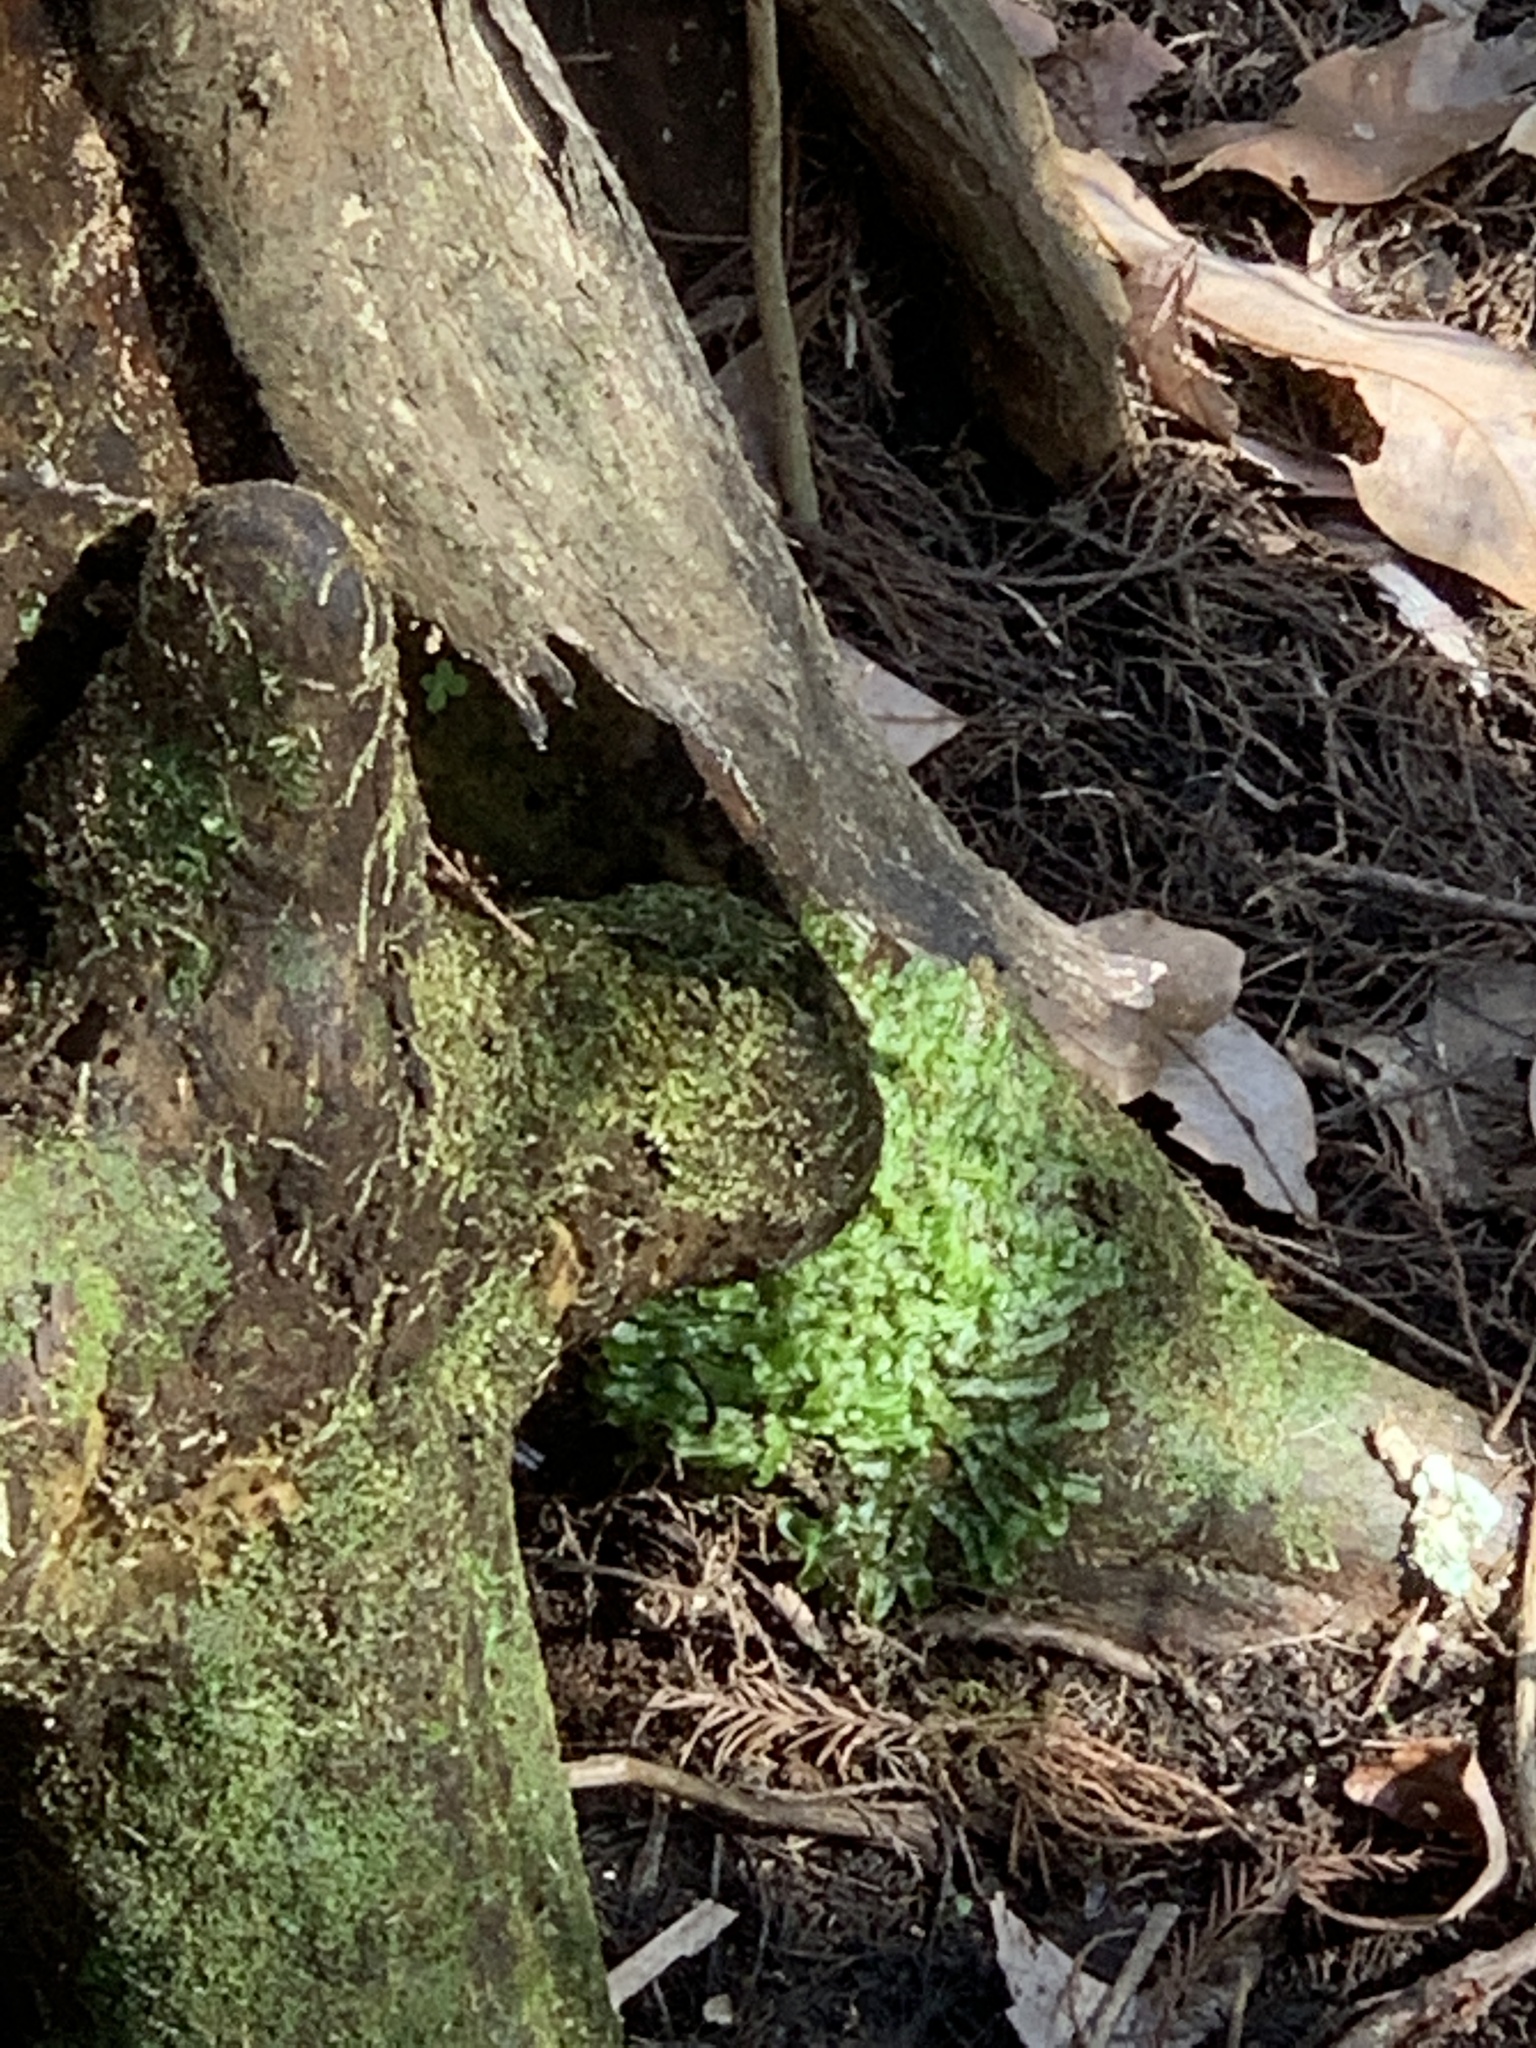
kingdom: Plantae
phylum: Marchantiophyta
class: Jungermanniopsida
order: Jungermanniales
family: Lophocoleaceae
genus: Lophocolea
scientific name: Lophocolea heterophylla
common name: Variable-leaved crestwort
